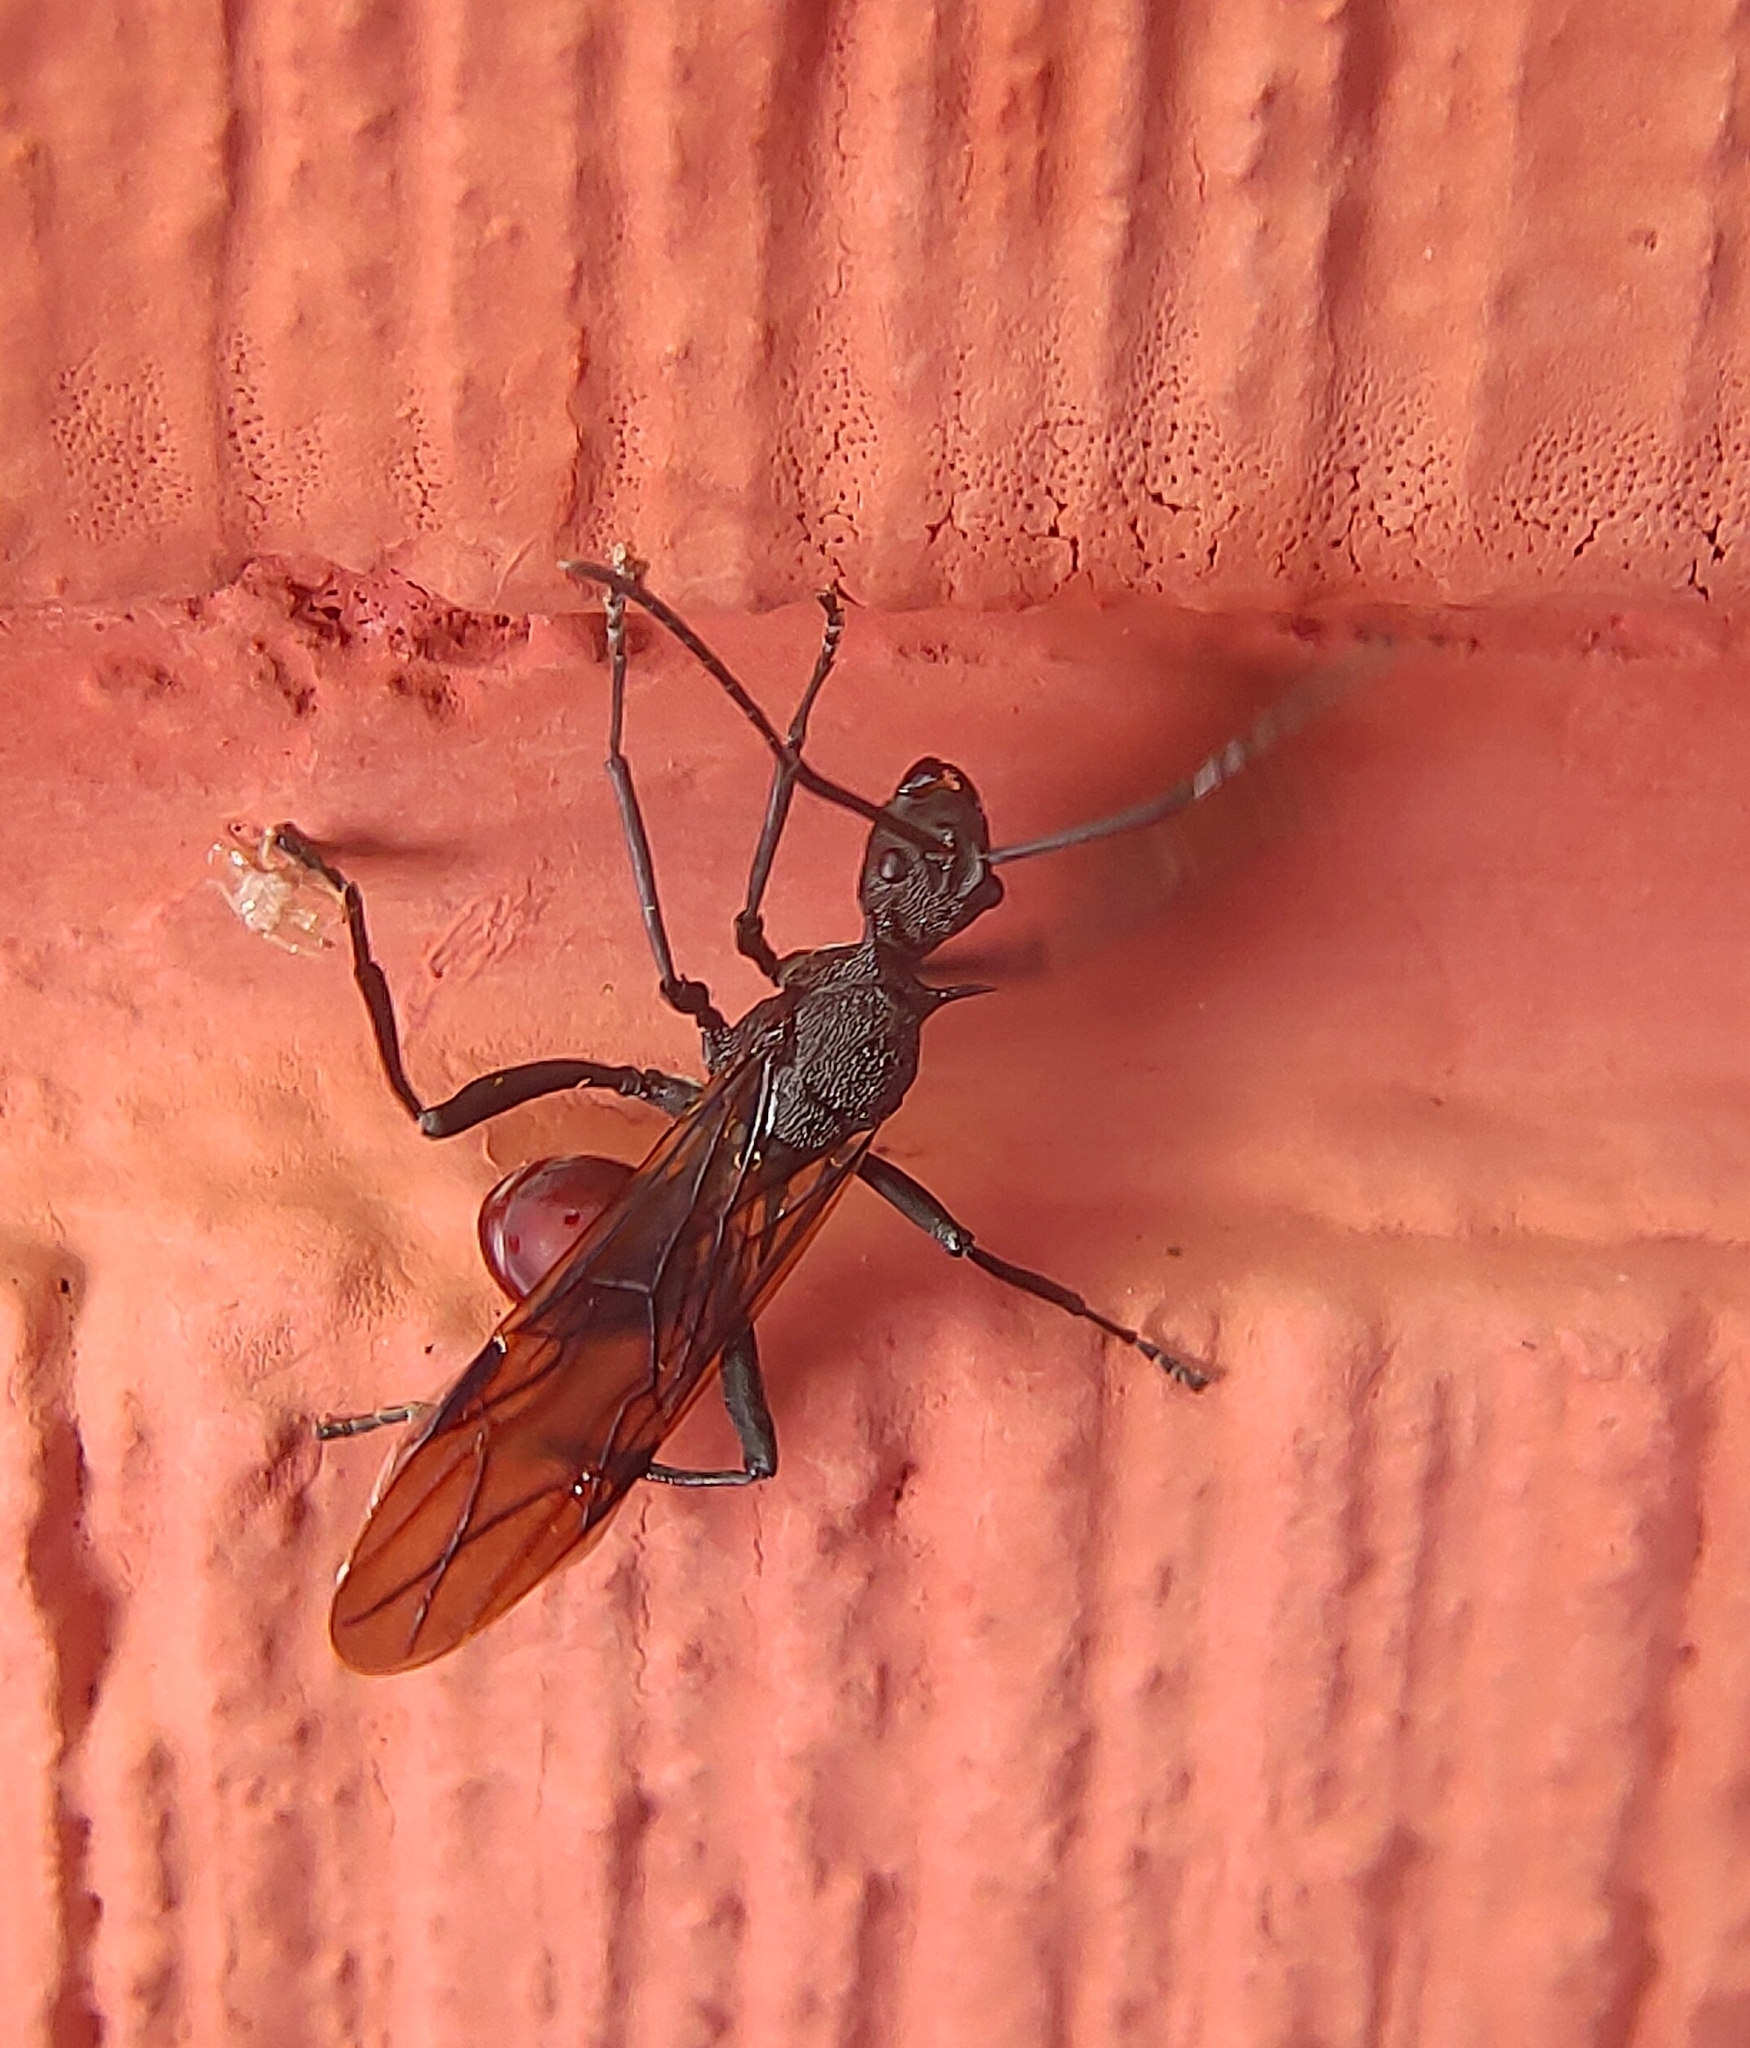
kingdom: Animalia
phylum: Arthropoda
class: Insecta
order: Hymenoptera
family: Formicidae
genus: Polyrhachis
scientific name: Polyrhachis armata
